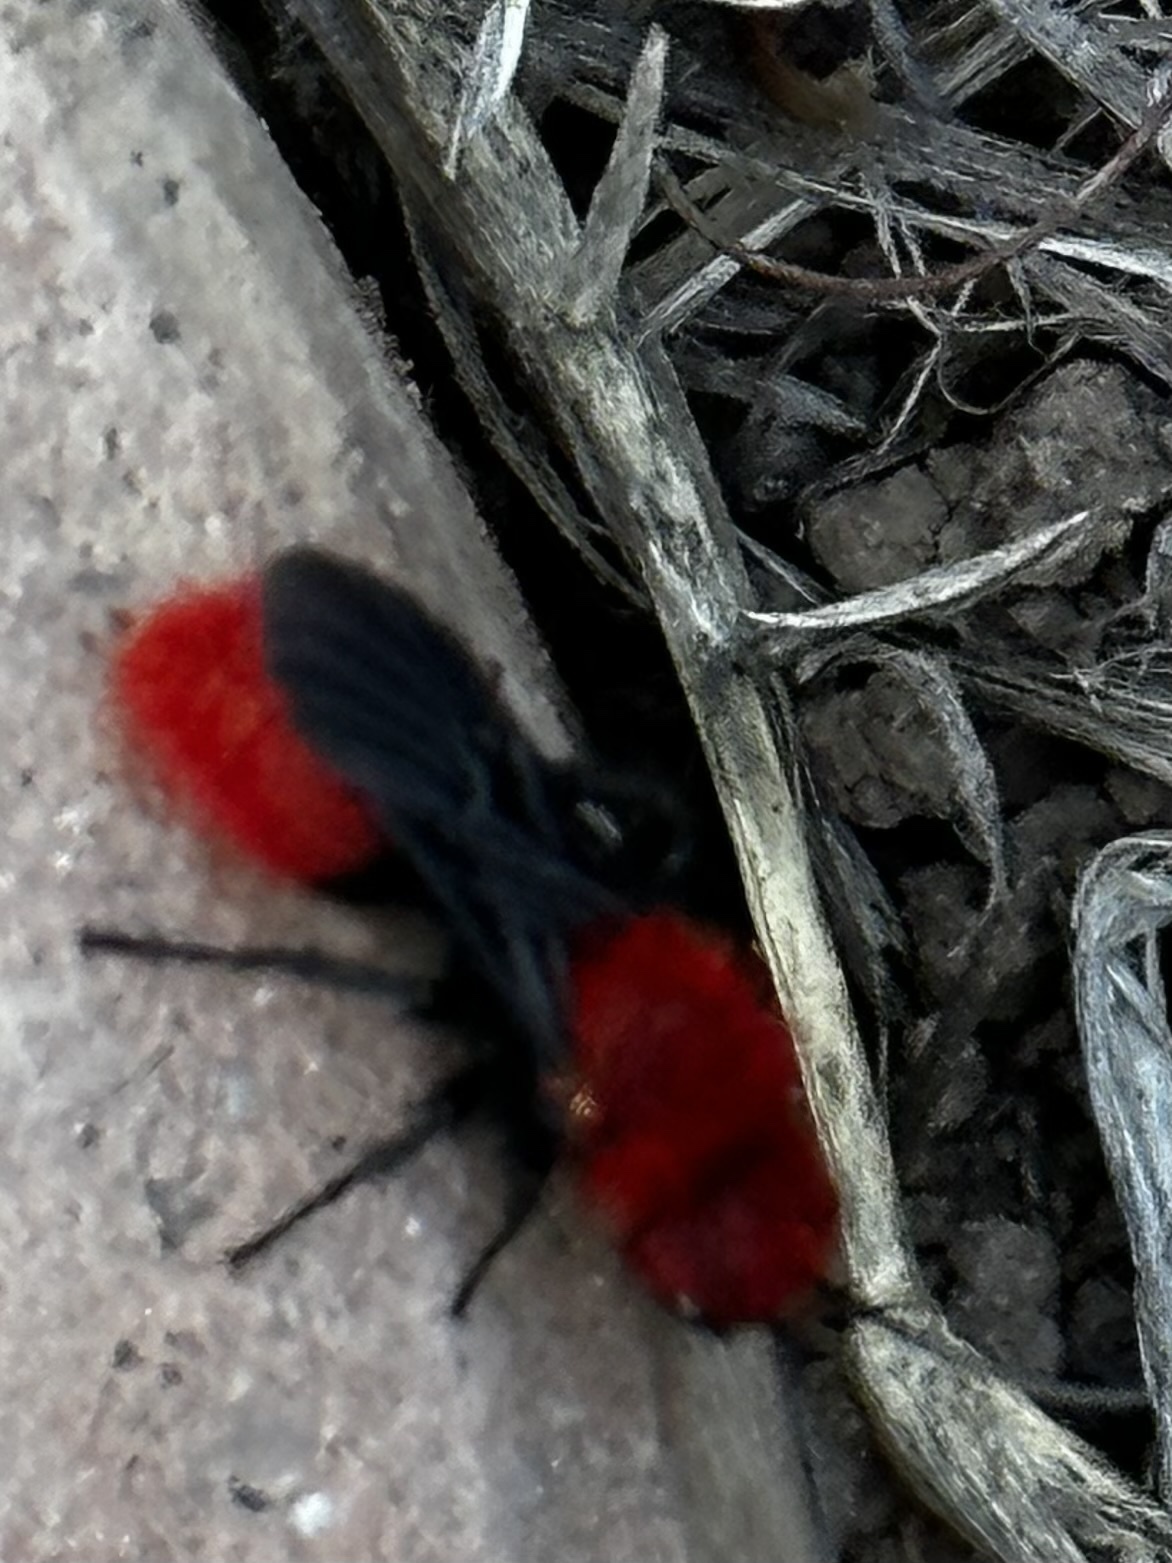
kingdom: Animalia
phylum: Arthropoda
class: Insecta
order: Hymenoptera
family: Mutillidae
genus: Dasymutilla
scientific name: Dasymutilla
